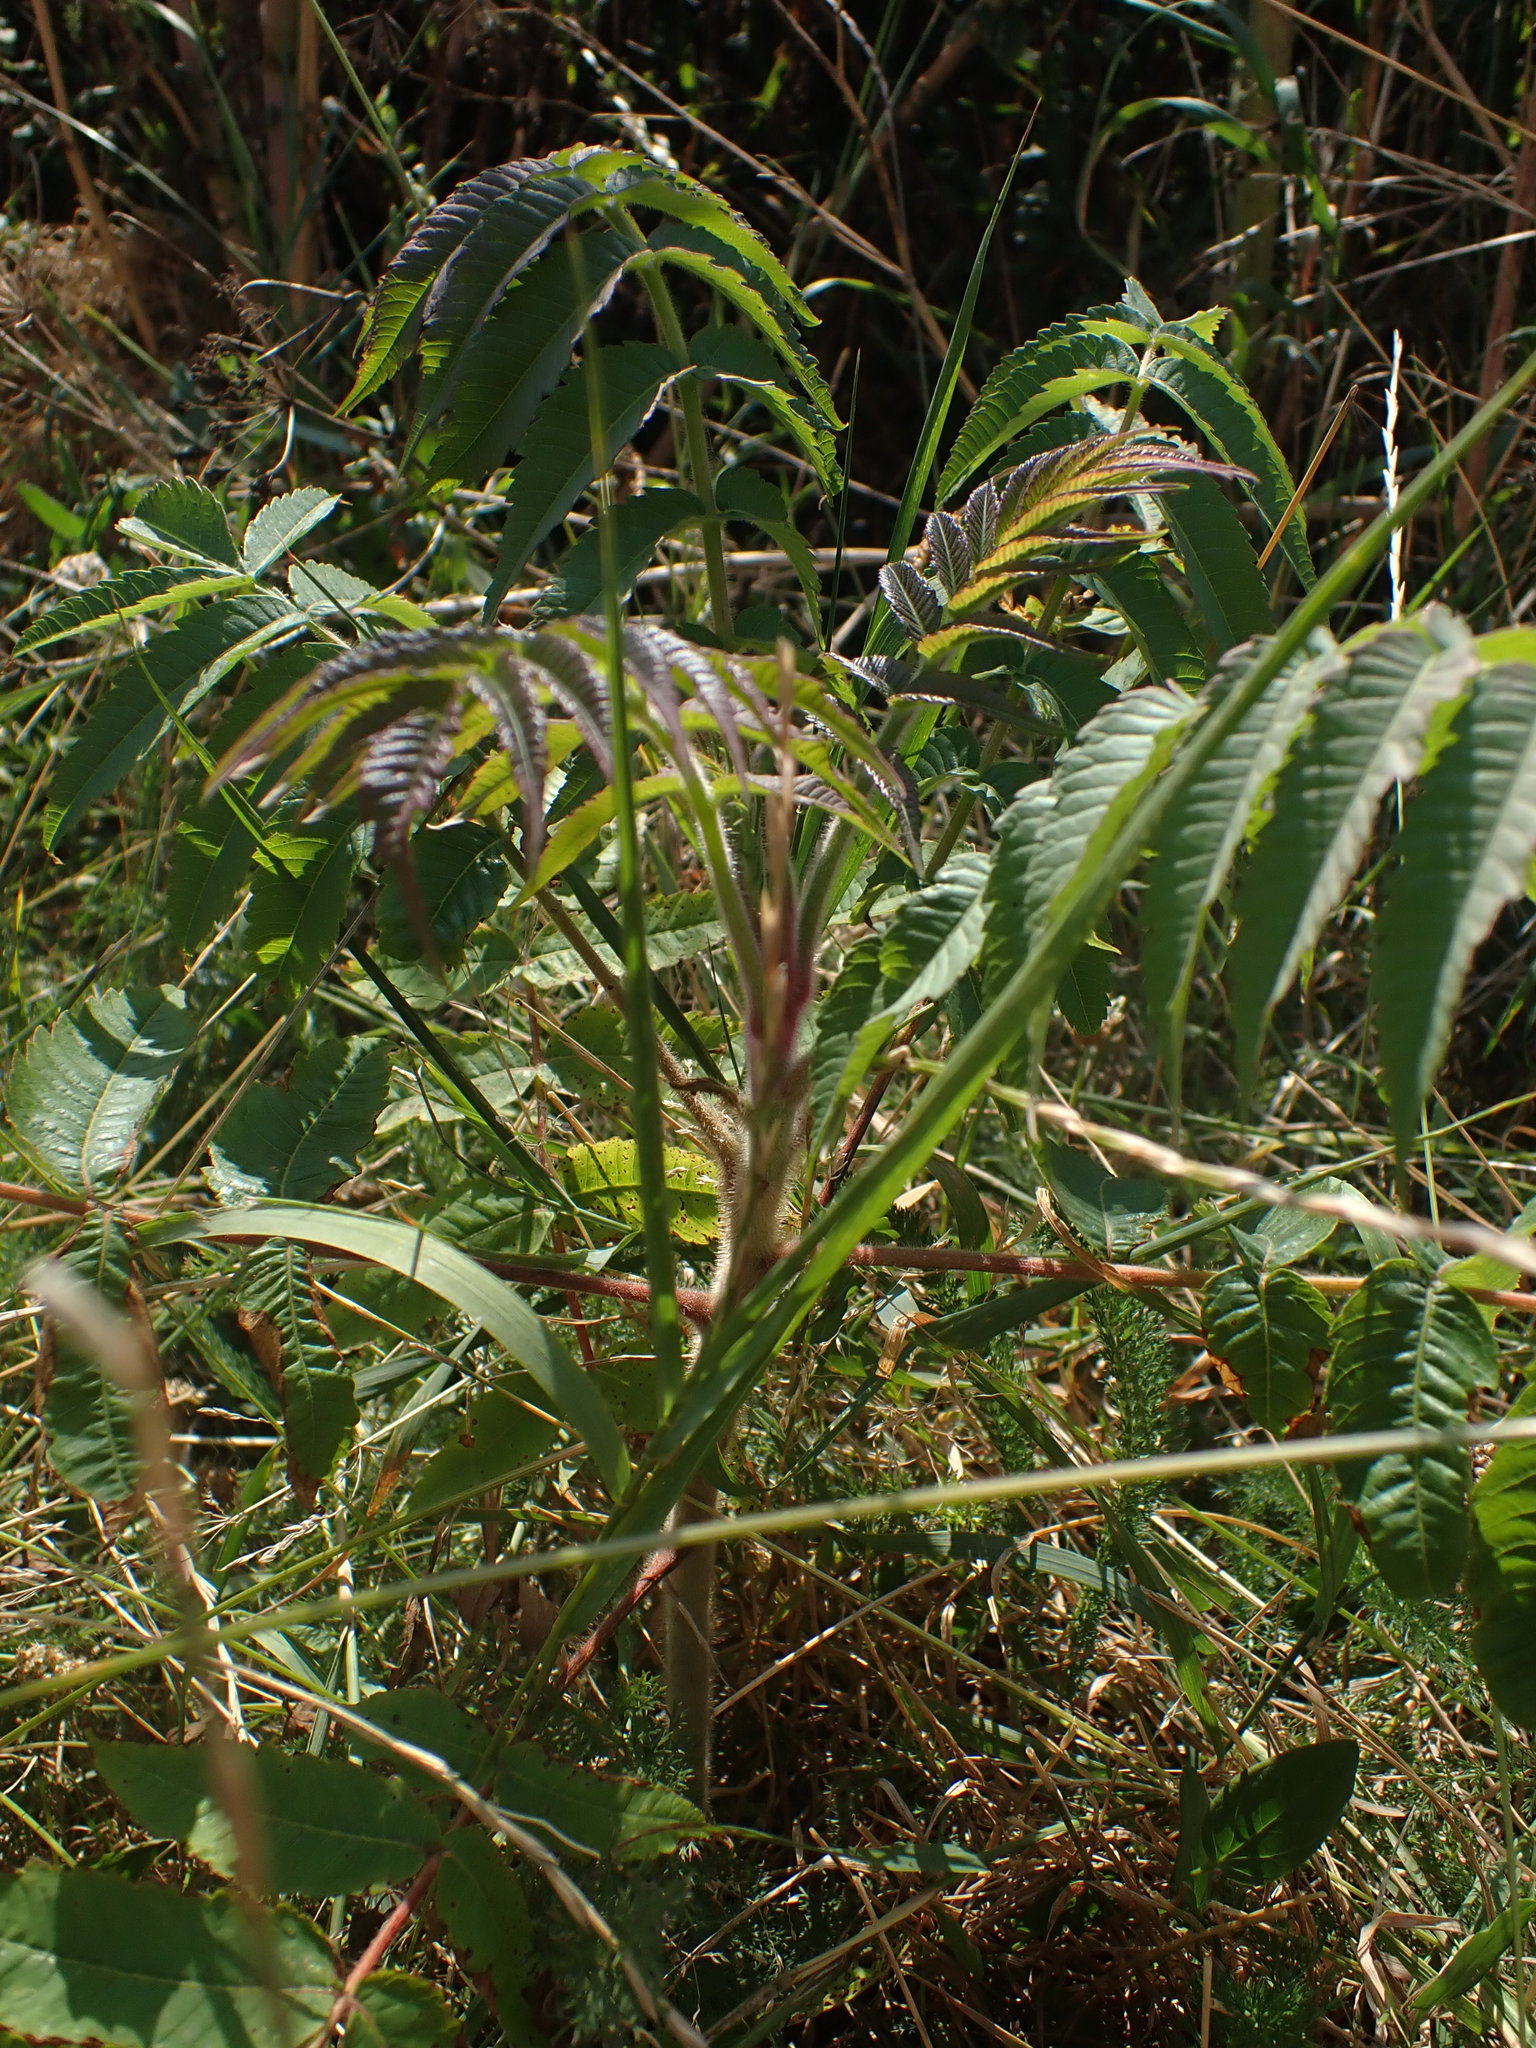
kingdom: Plantae
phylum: Tracheophyta
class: Magnoliopsida
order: Sapindales
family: Anacardiaceae
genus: Rhus
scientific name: Rhus typhina
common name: Staghorn sumac
